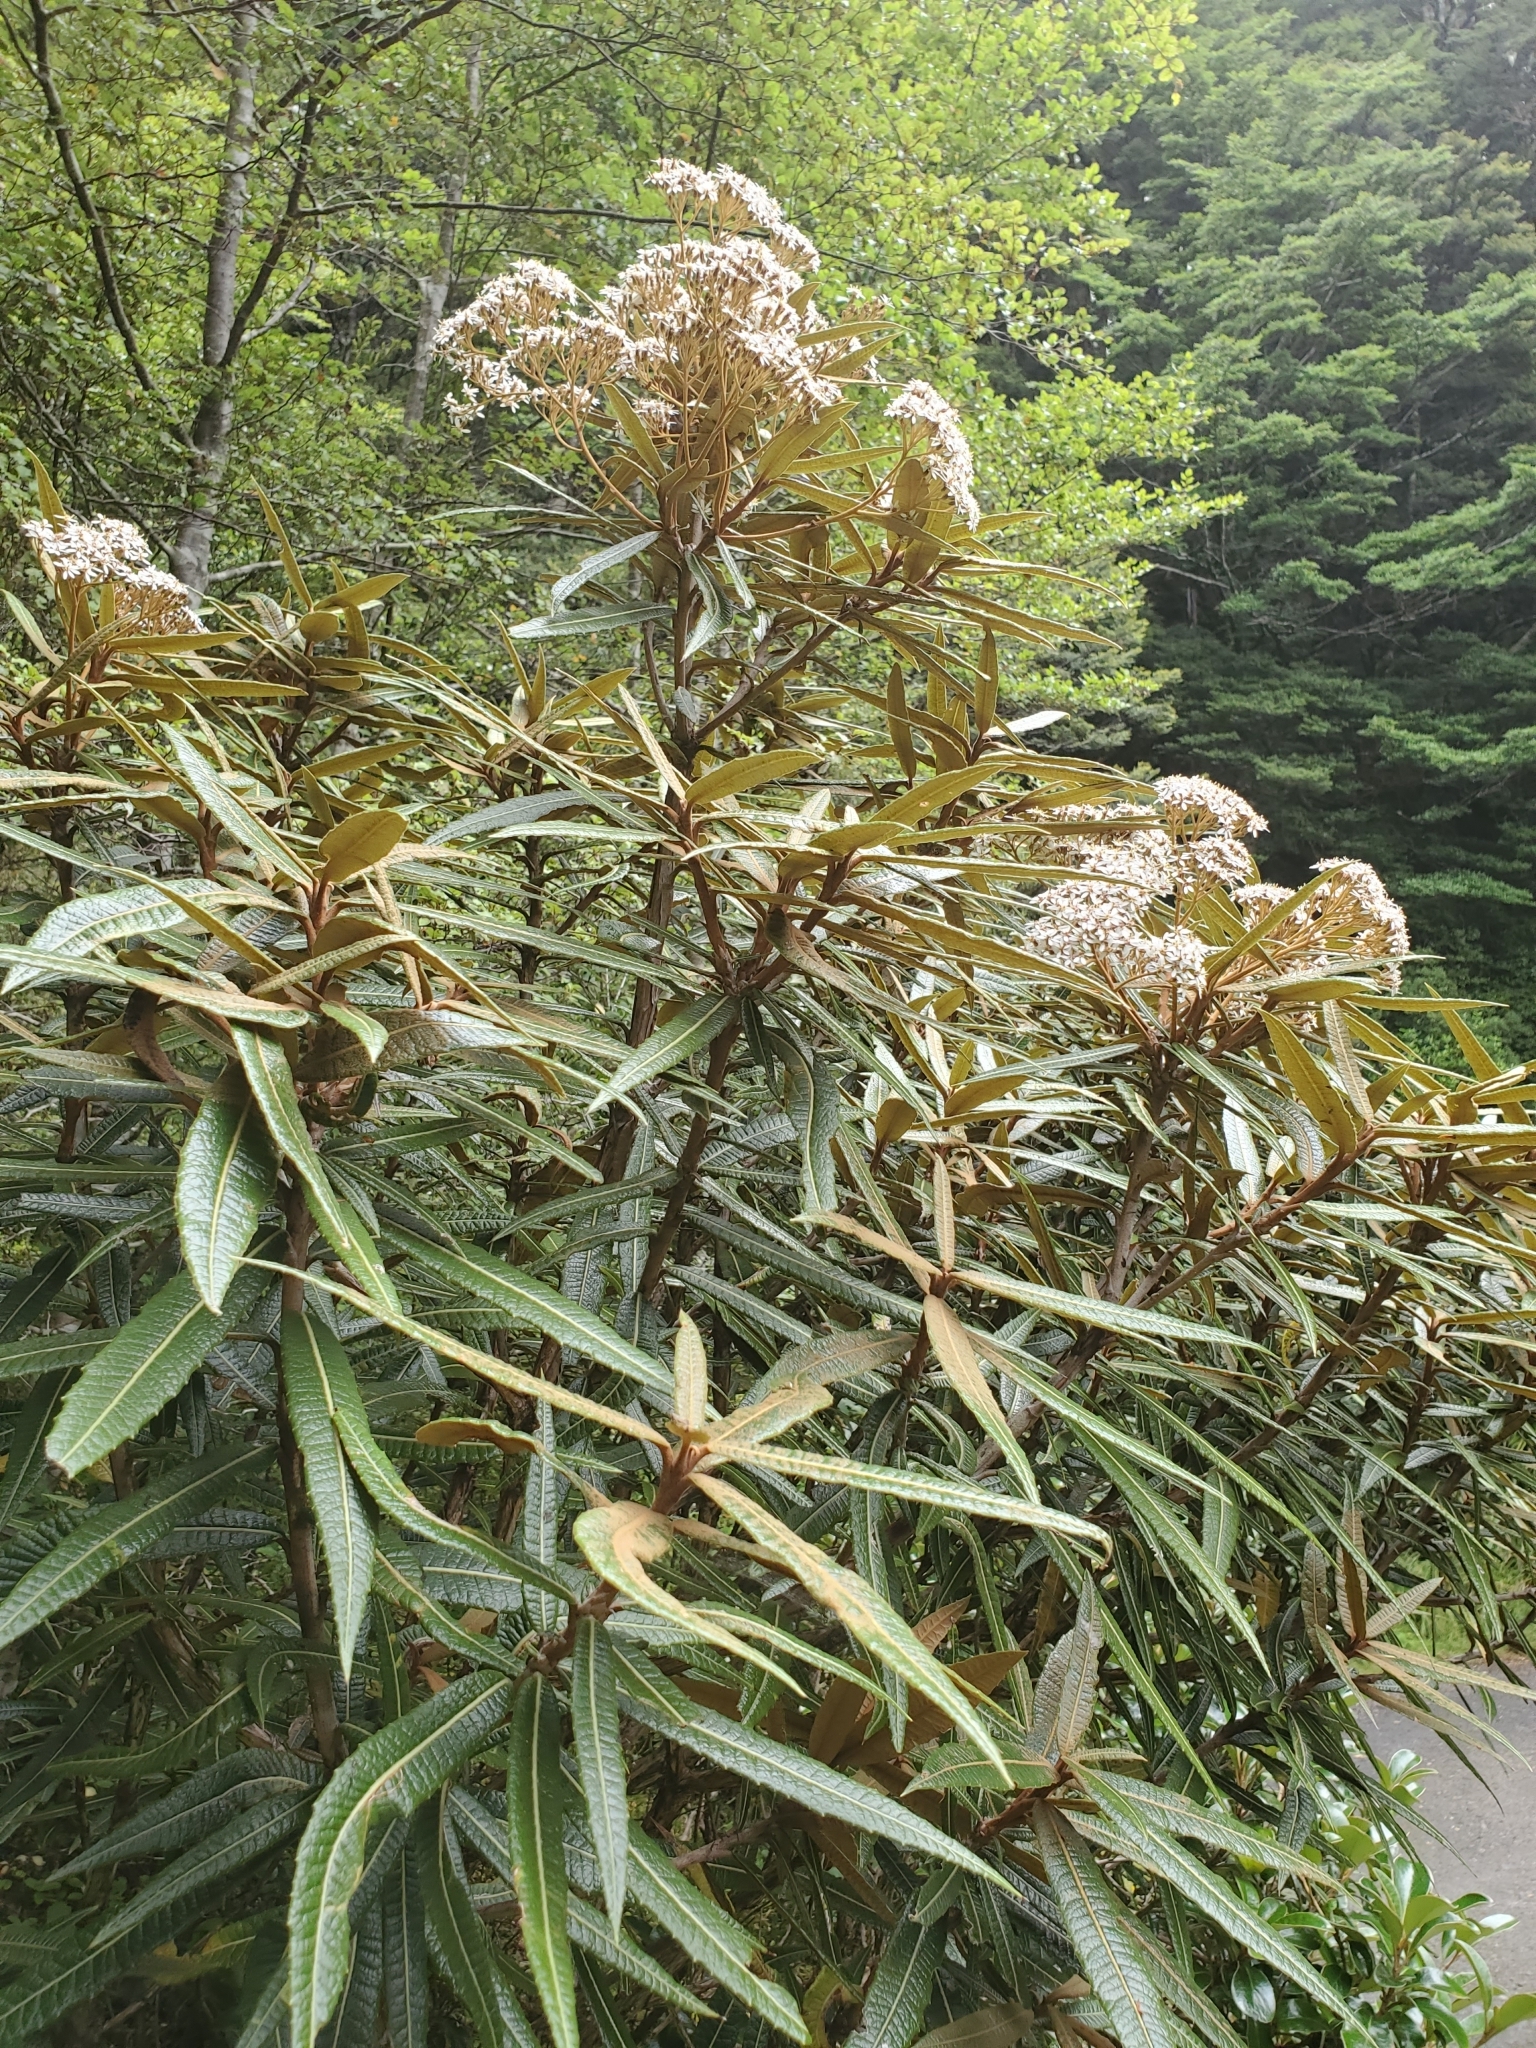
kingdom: Plantae
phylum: Tracheophyta
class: Magnoliopsida
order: Asterales
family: Asteraceae
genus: Olearia
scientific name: Olearia lacunosa
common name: Lancewood tree daisy
